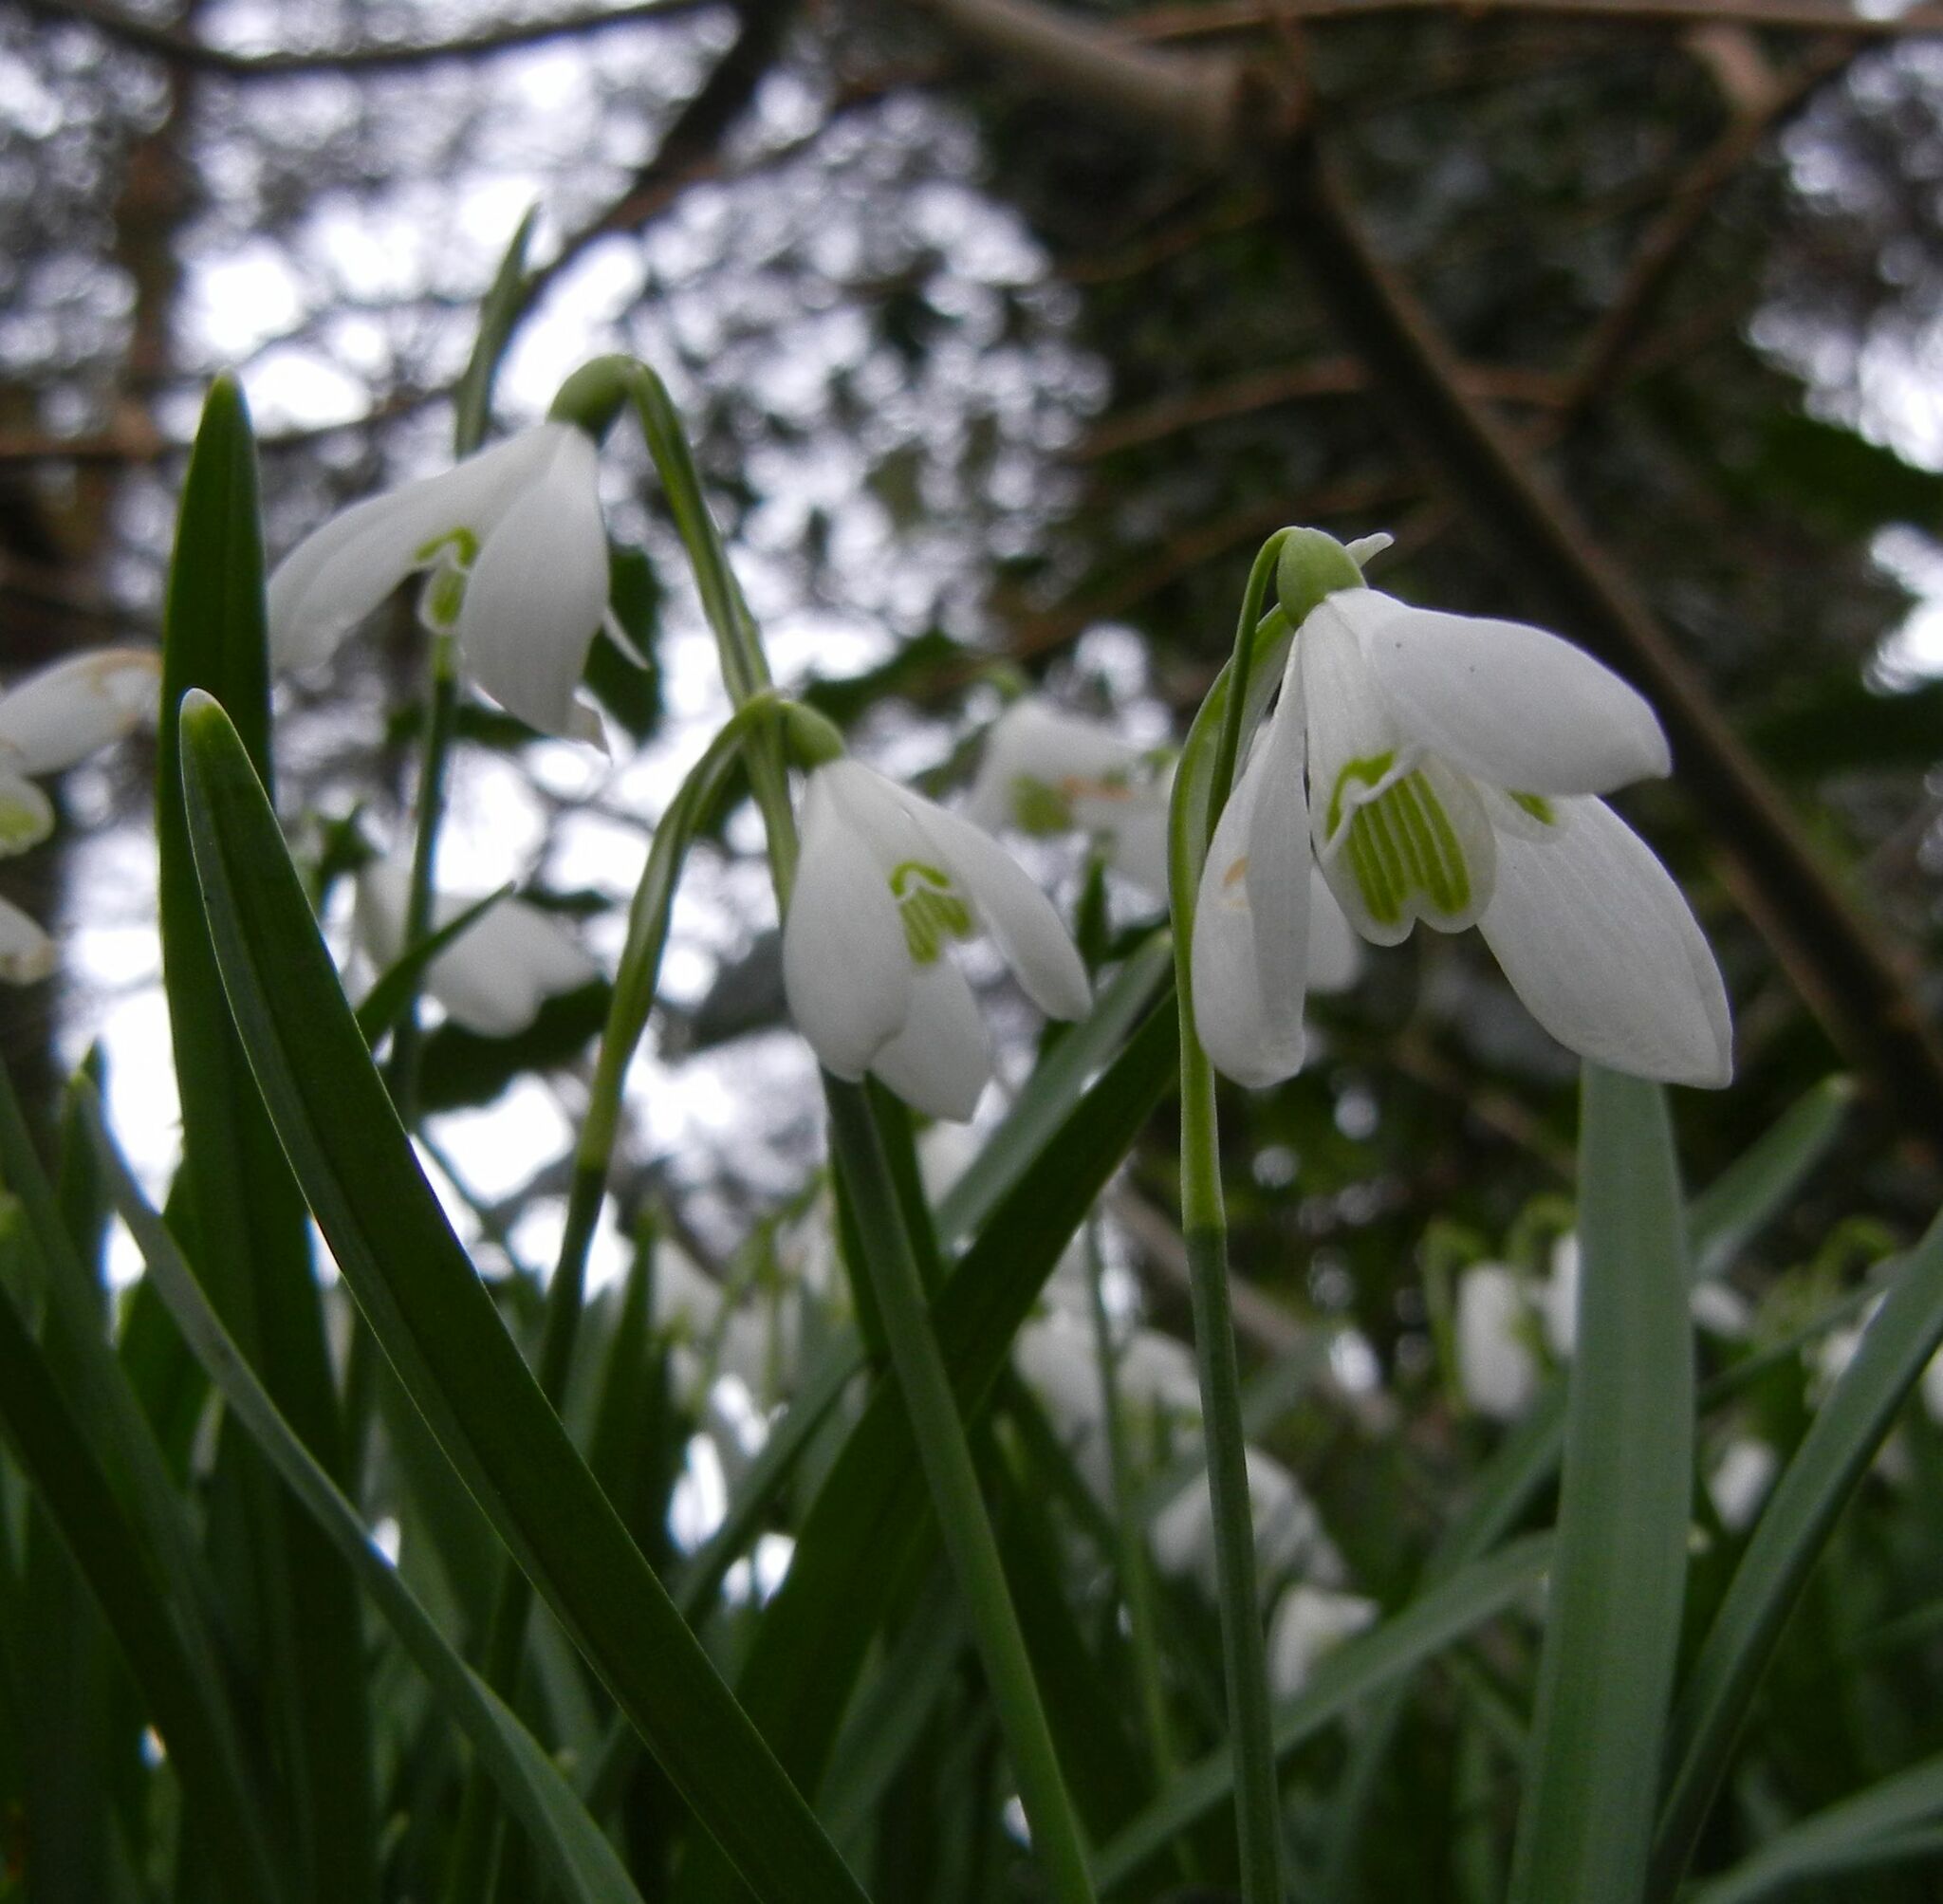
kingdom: Plantae
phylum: Tracheophyta
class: Liliopsida
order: Asparagales
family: Amaryllidaceae
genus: Galanthus
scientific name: Galanthus nivalis
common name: Snowdrop
